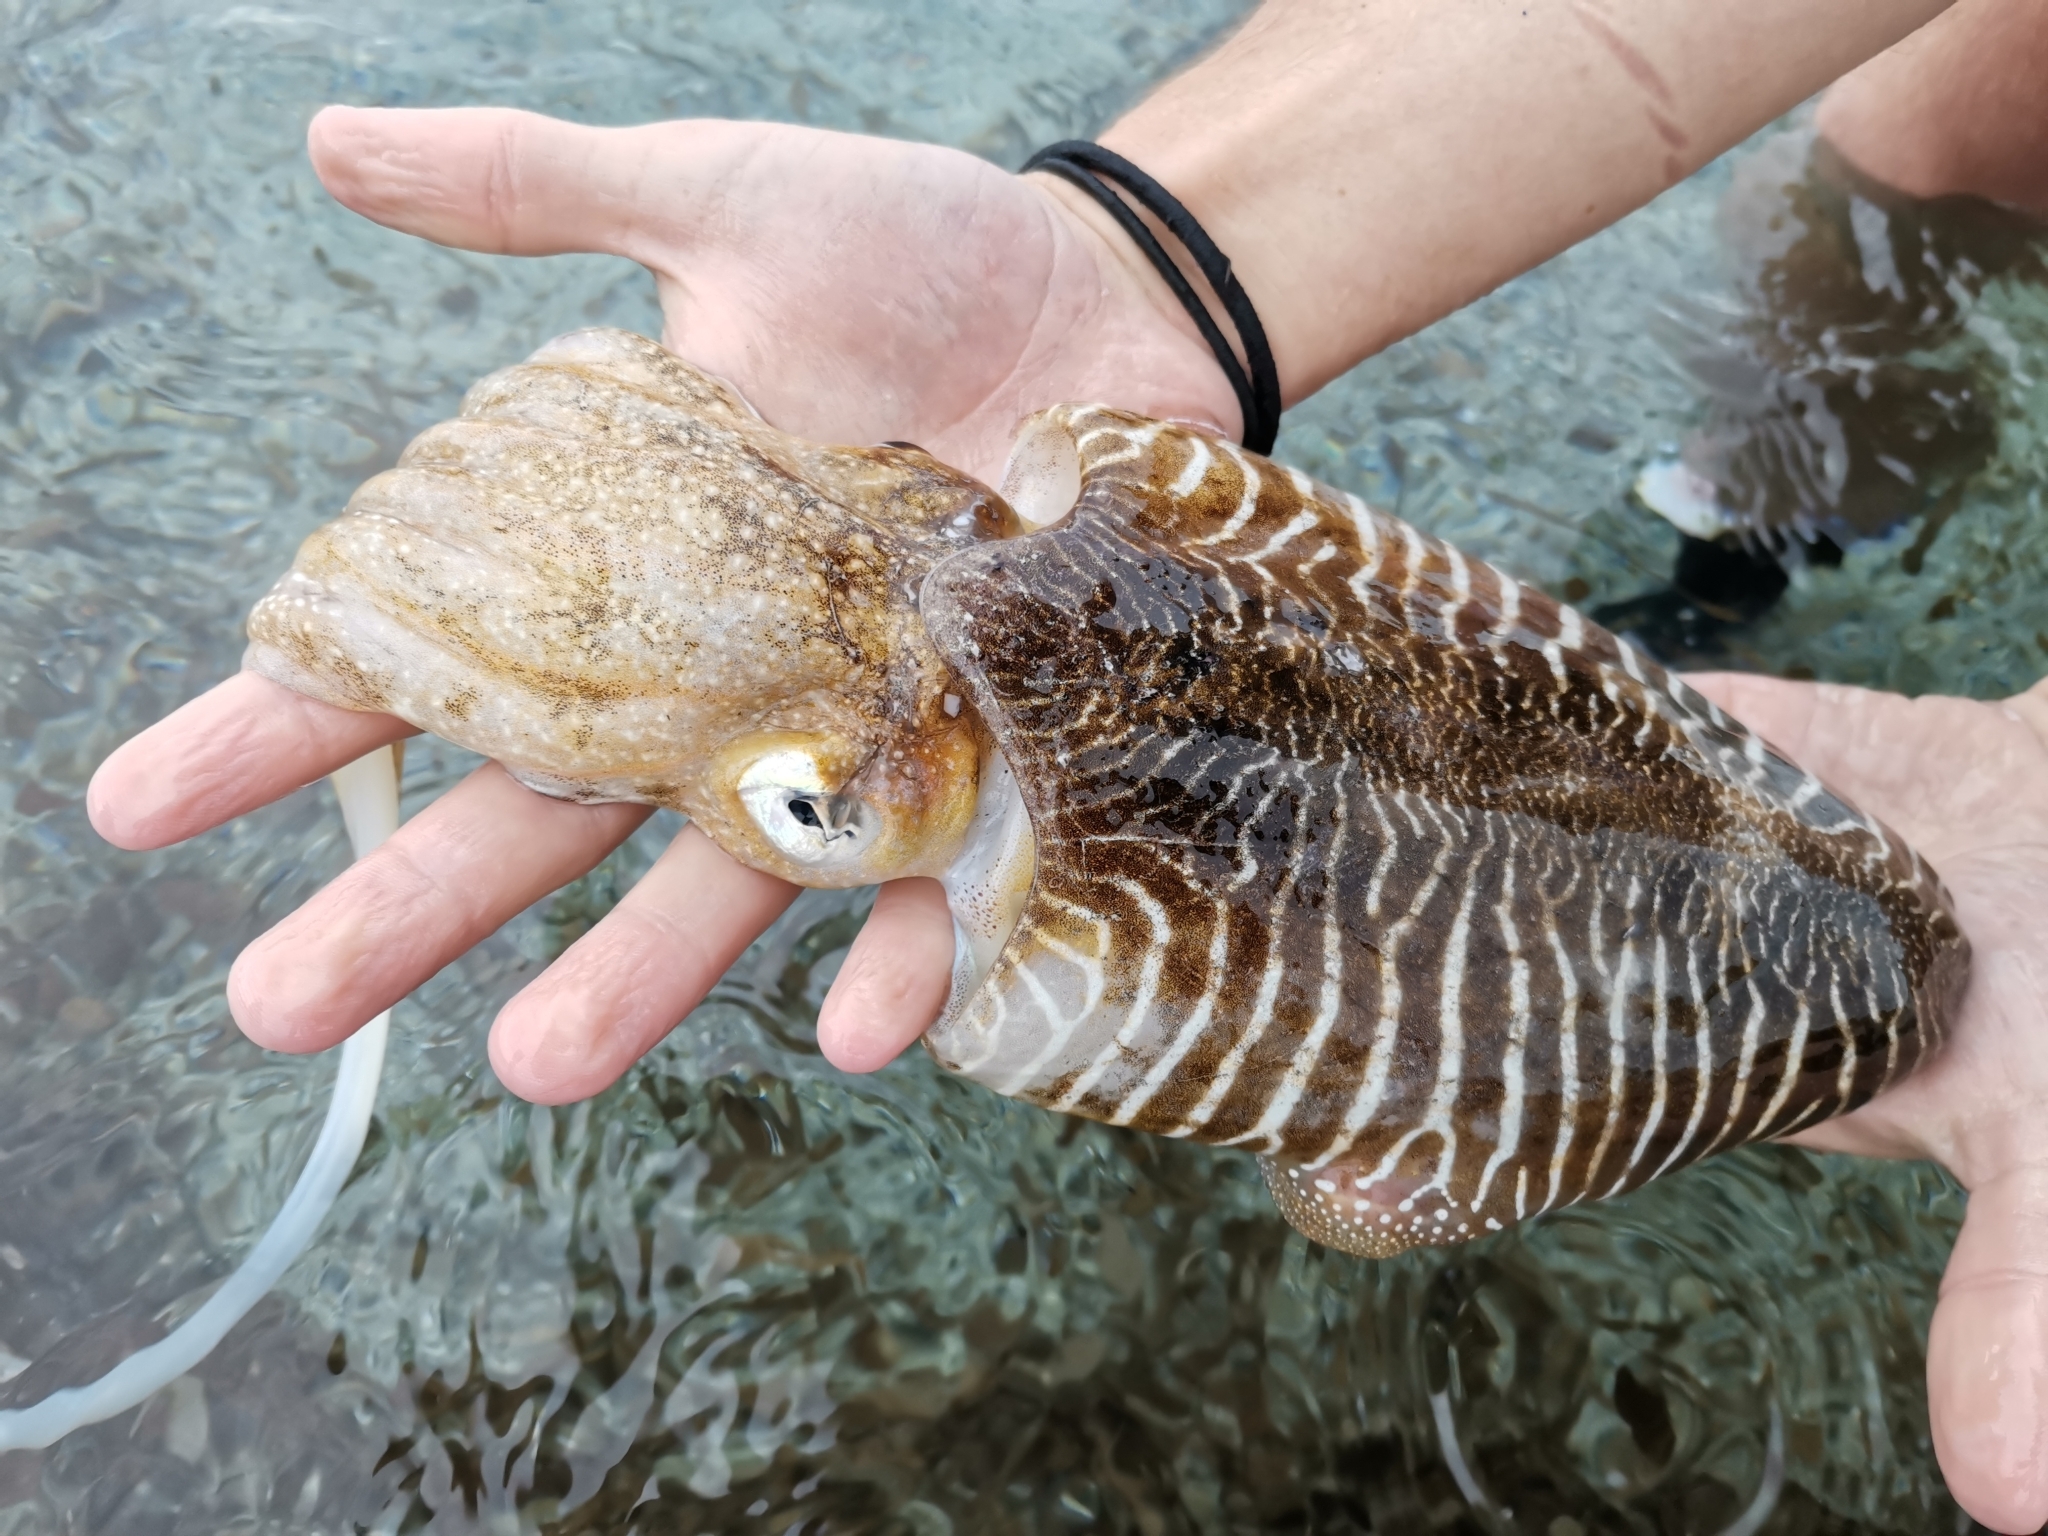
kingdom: Animalia
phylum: Mollusca
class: Cephalopoda
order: Sepiida
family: Sepiidae
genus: Sepia
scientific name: Sepia officinalis
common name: Common cuttlefish
